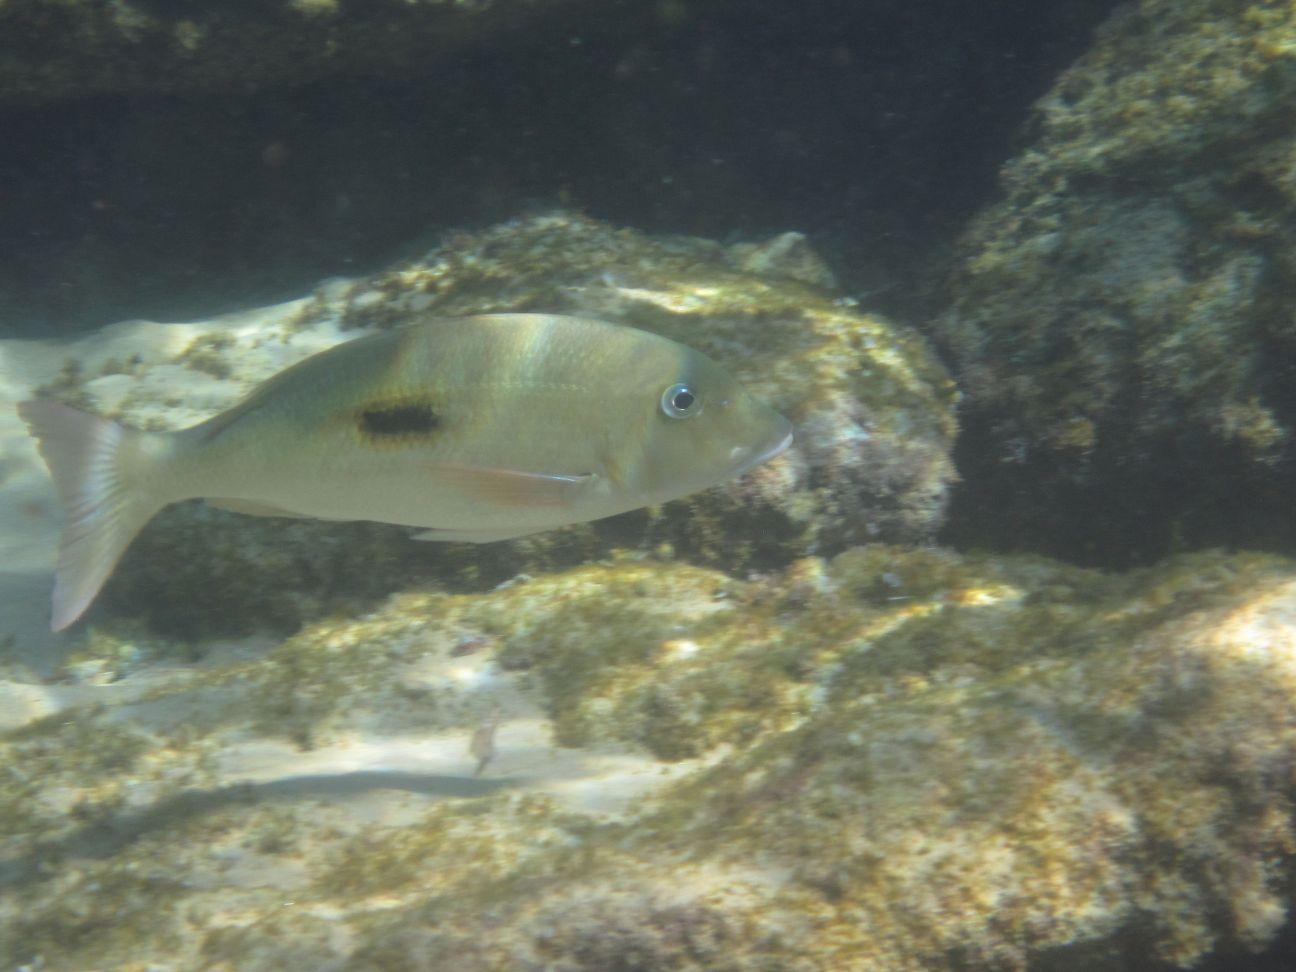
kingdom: Animalia
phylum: Chordata
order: Perciformes
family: Lethrinidae
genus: Lethrinus
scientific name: Lethrinus harak
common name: Blackspot emperor
